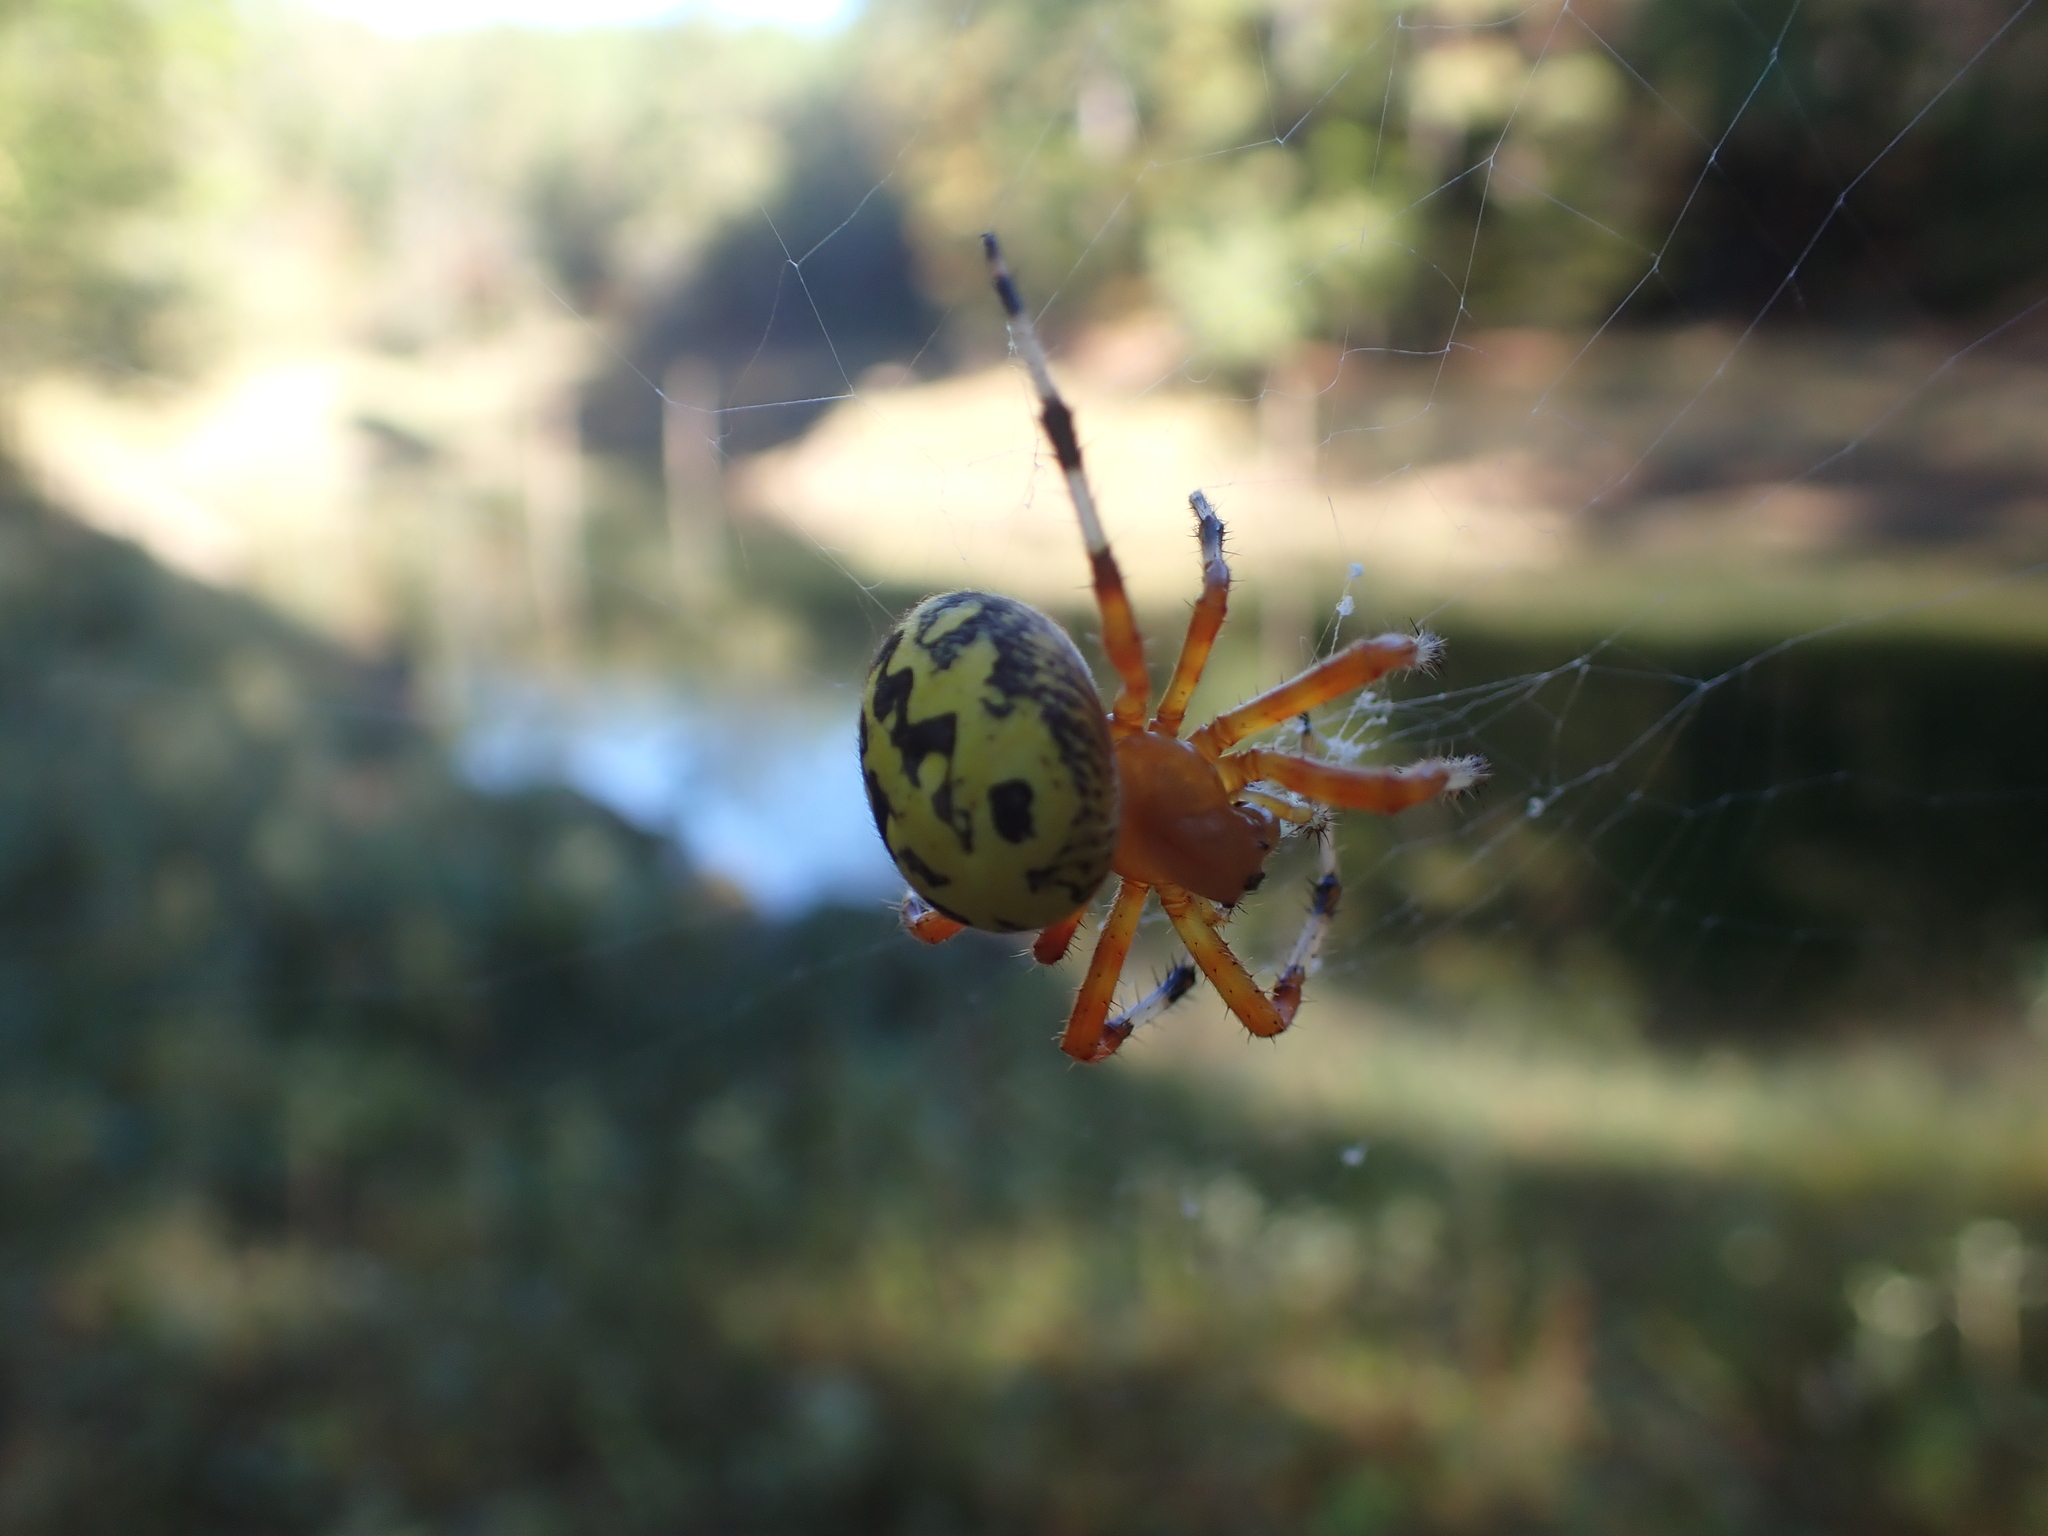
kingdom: Animalia
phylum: Arthropoda
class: Arachnida
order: Araneae
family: Araneidae
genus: Araneus
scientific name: Araneus marmoreus
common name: Marbled orbweaver
